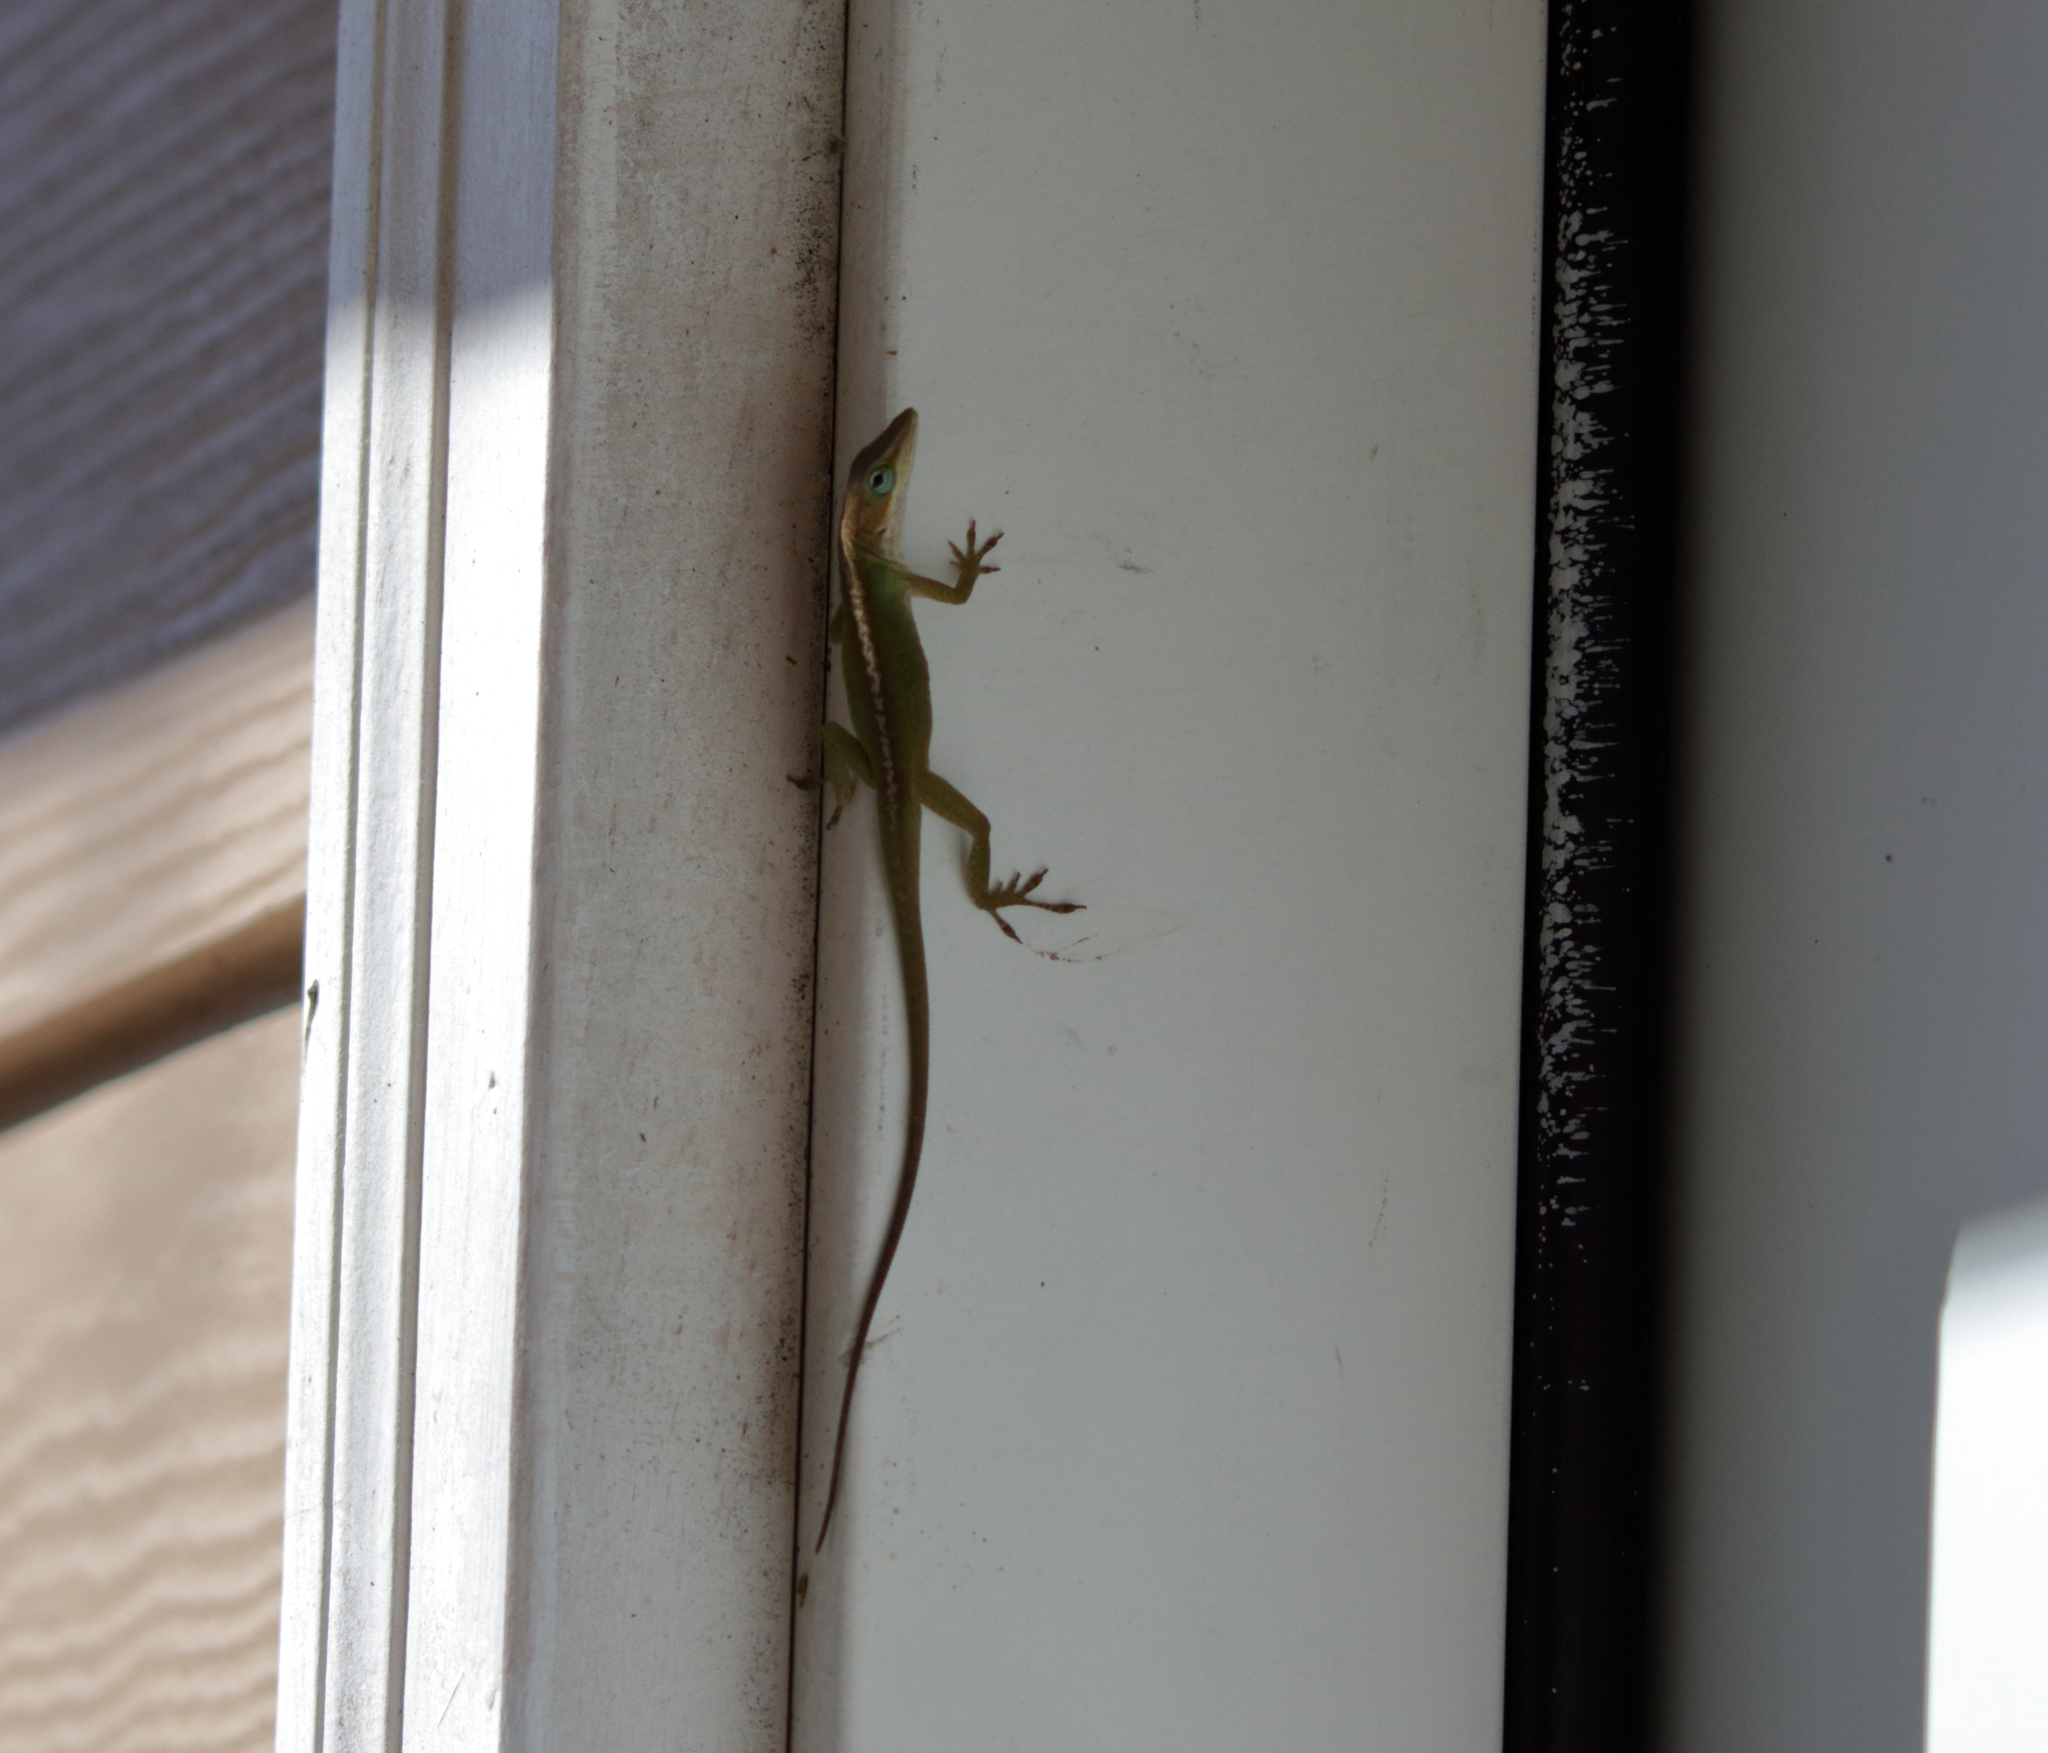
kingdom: Animalia
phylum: Chordata
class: Squamata
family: Dactyloidae
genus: Anolis
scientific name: Anolis carolinensis
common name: Green anole
